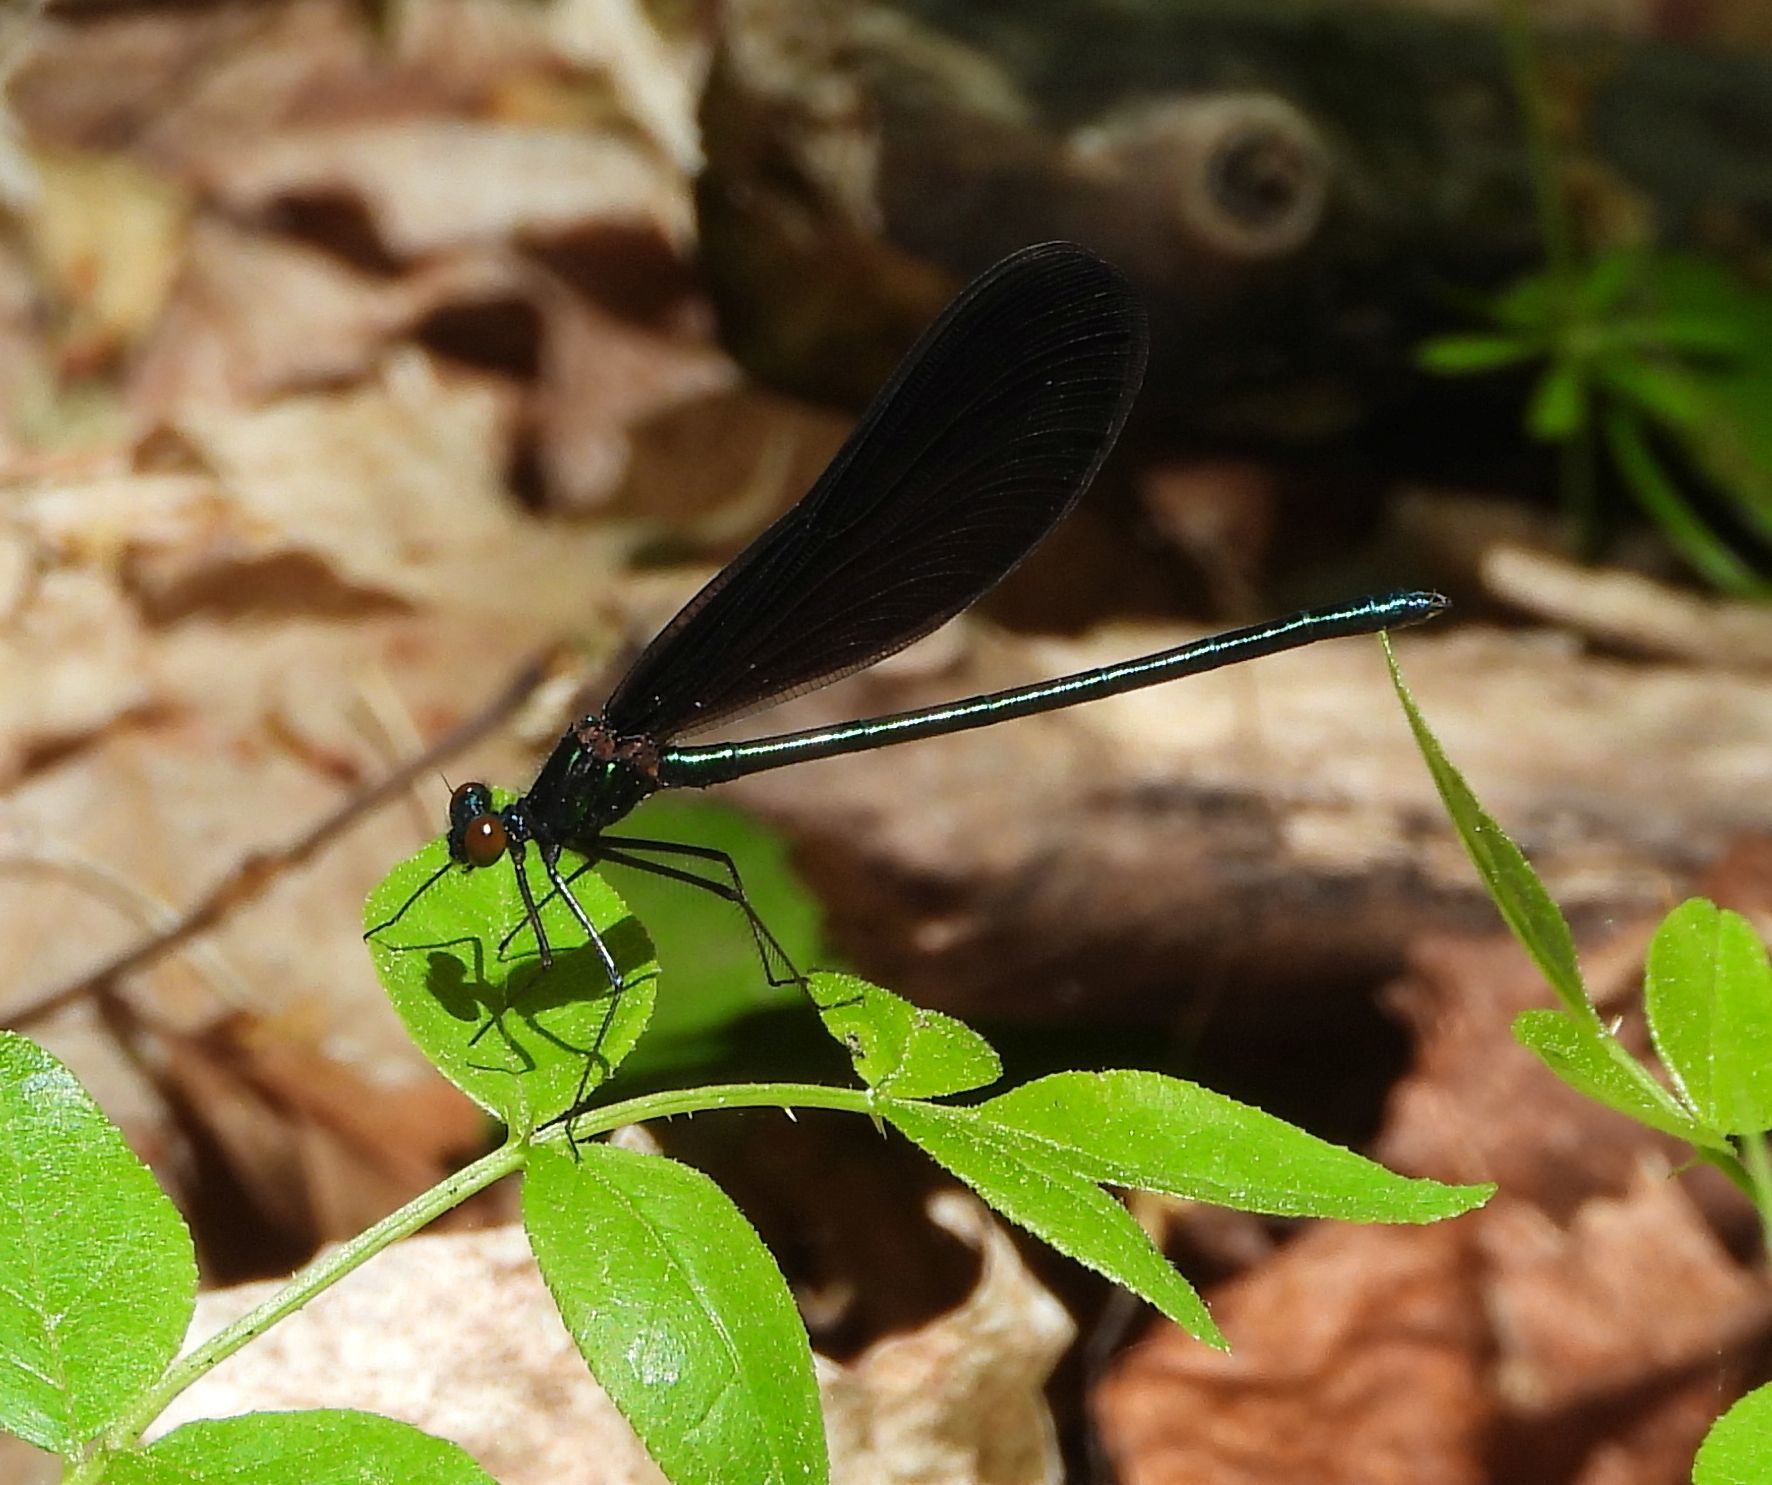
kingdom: Animalia
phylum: Arthropoda
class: Insecta
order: Odonata
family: Calopterygidae
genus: Calopteryx
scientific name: Calopteryx maculata
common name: Ebony jewelwing
